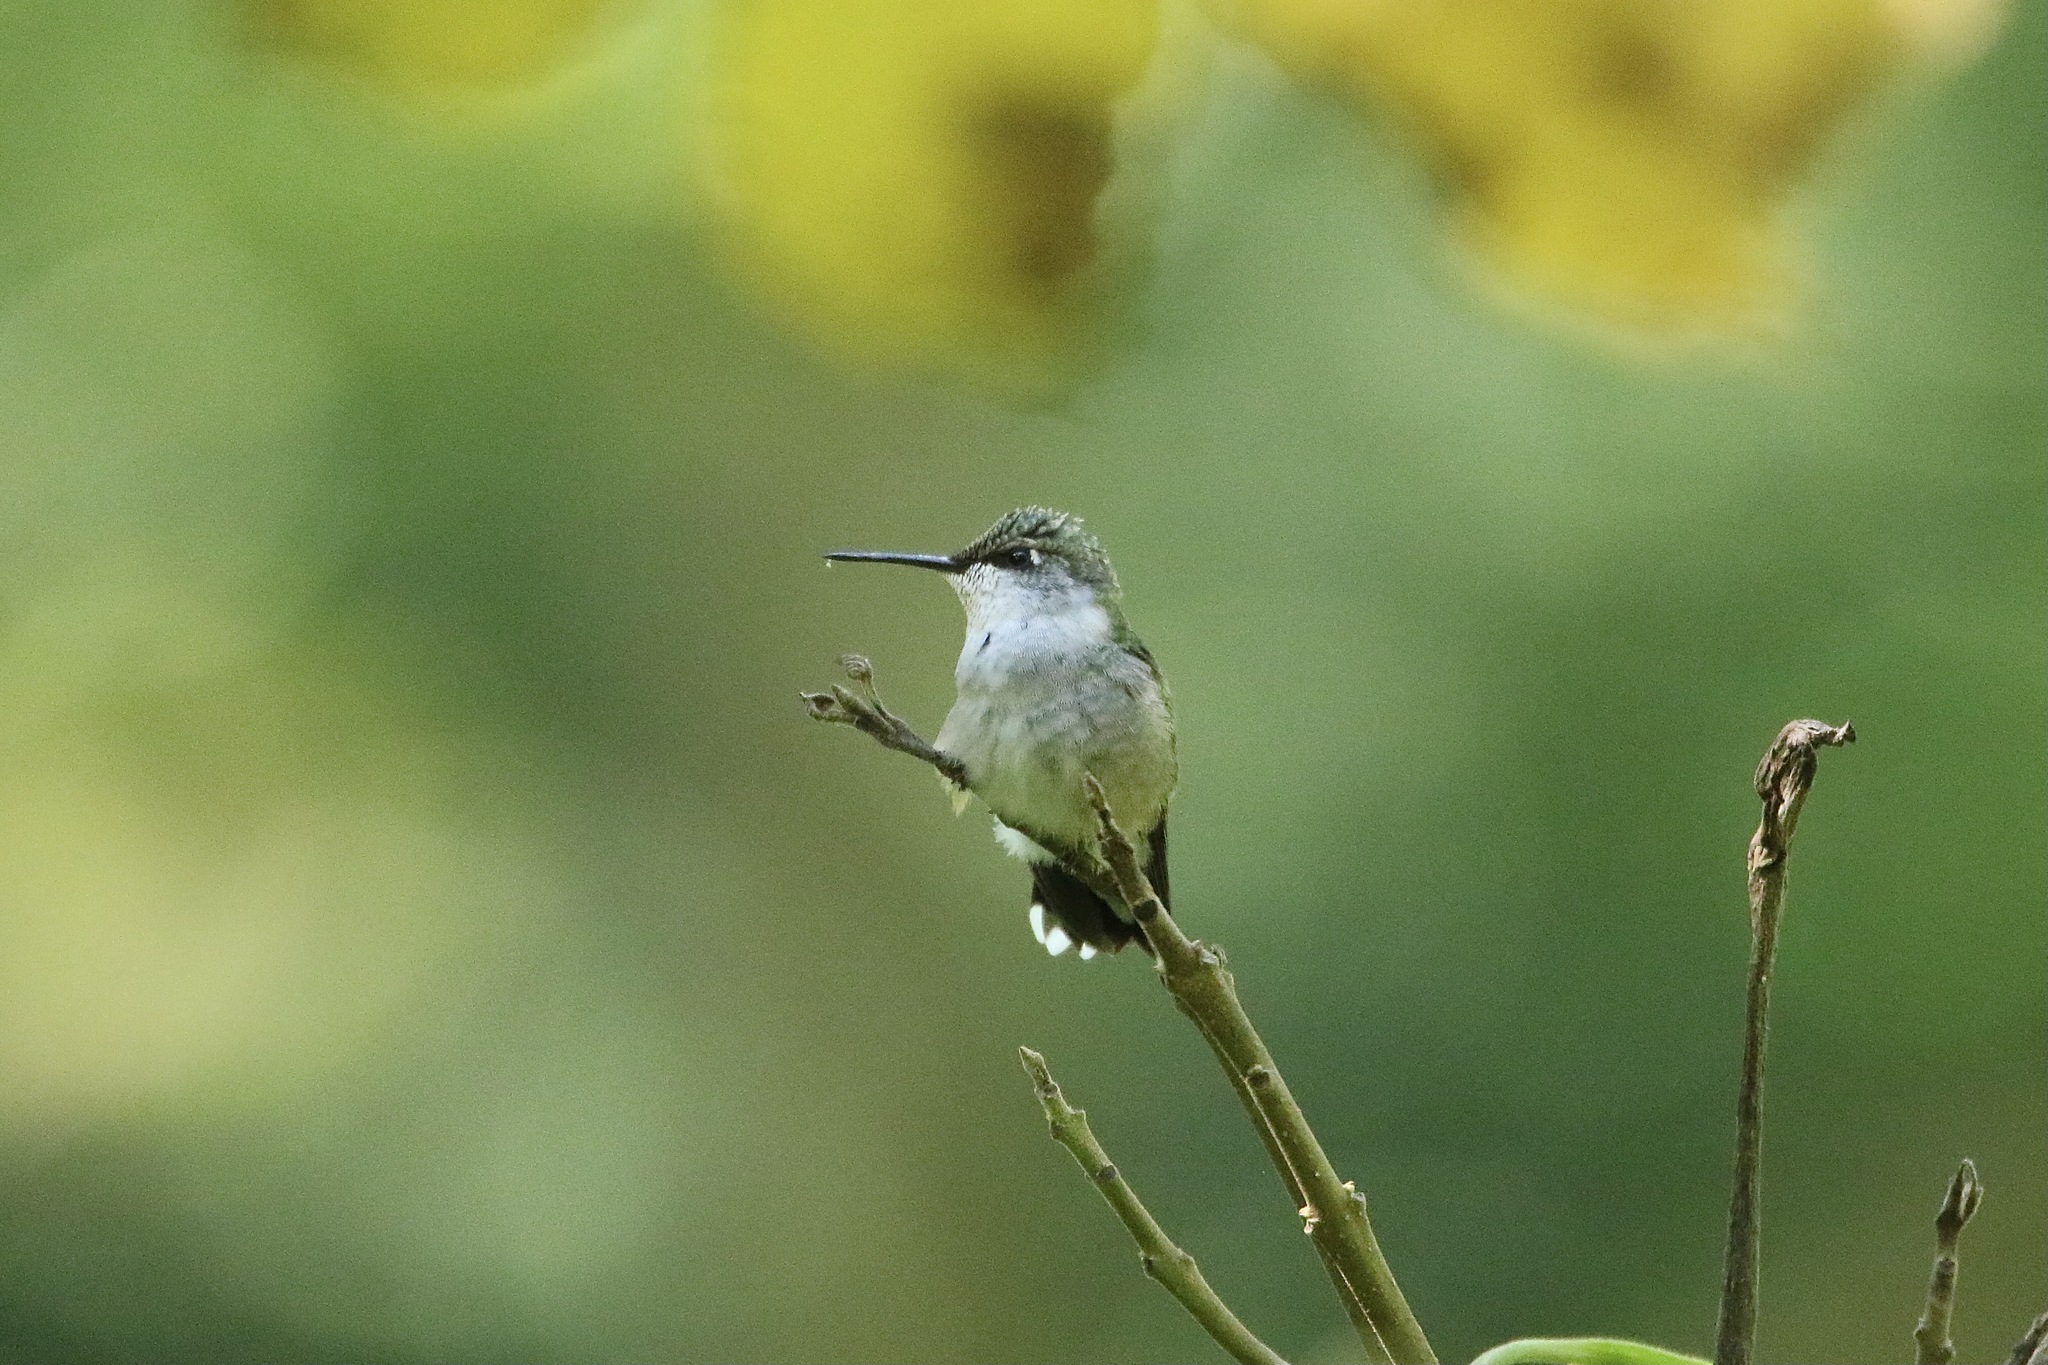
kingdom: Animalia
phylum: Chordata
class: Aves
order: Apodiformes
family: Trochilidae
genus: Archilochus
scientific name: Archilochus colubris
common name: Ruby-throated hummingbird
